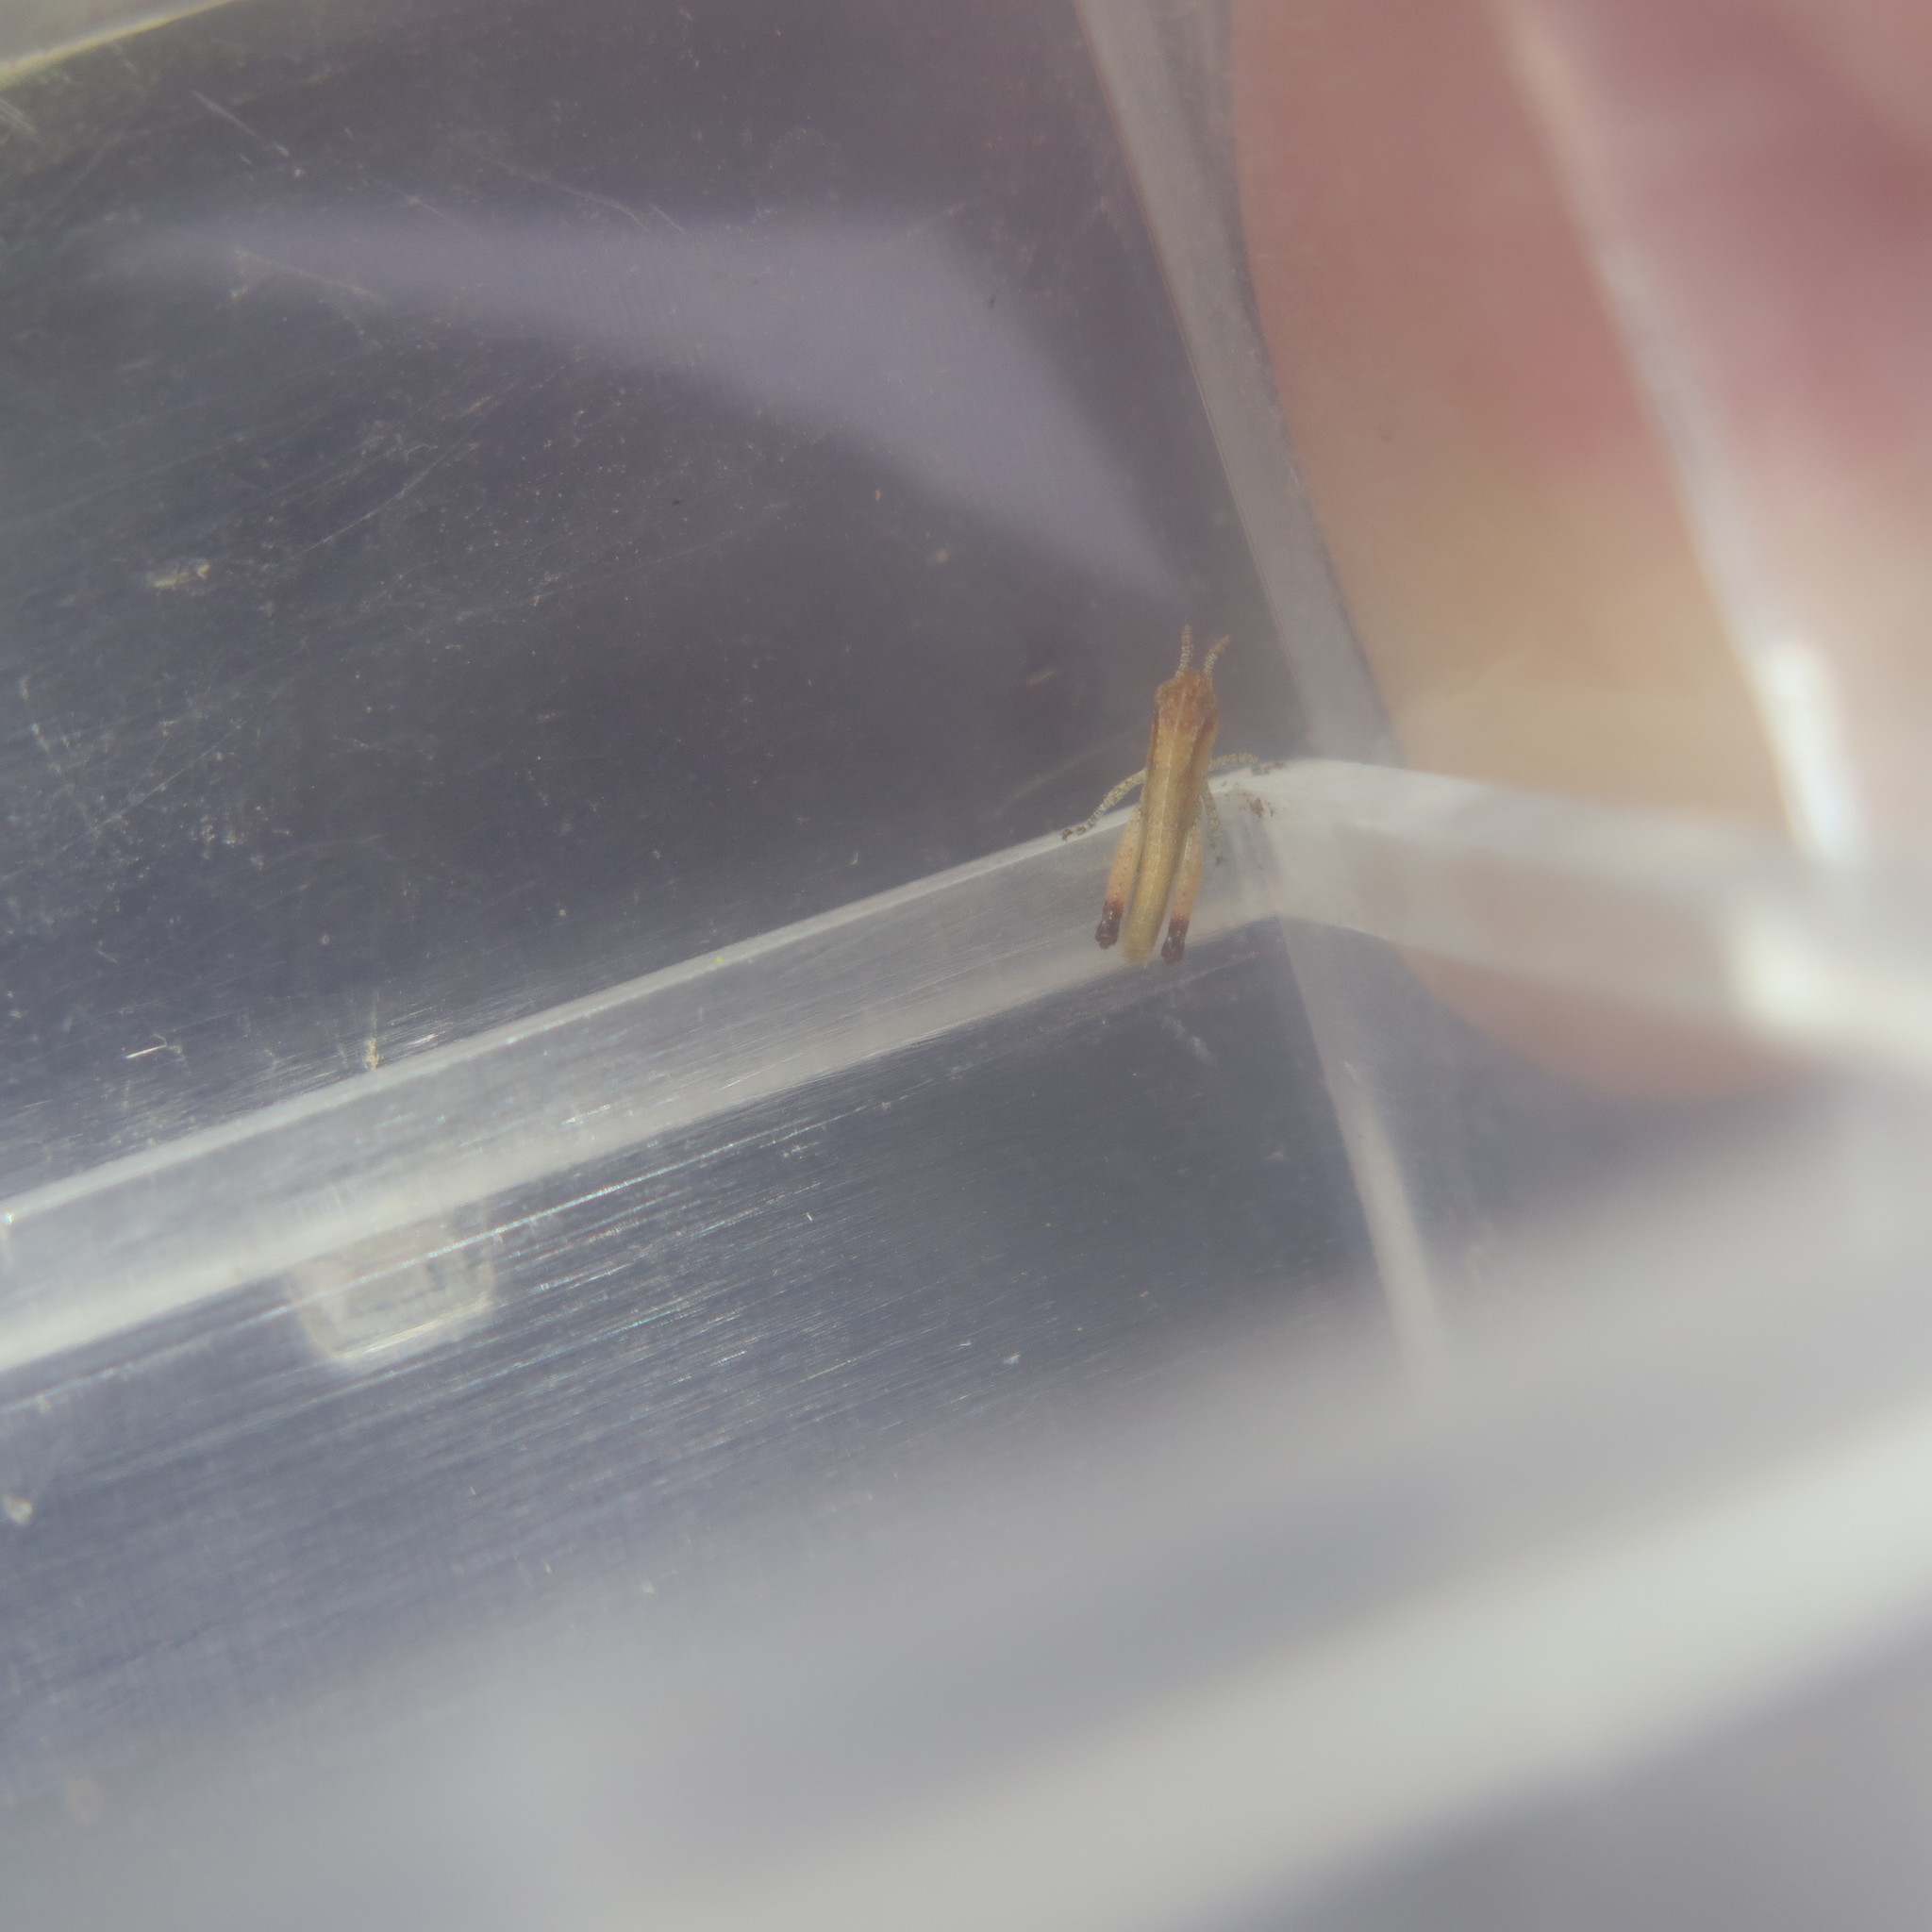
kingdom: Animalia
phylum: Arthropoda
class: Insecta
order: Orthoptera
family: Acrididae
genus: Chimarocephala
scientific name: Chimarocephala pacifica
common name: Painted meadow grasshopper
